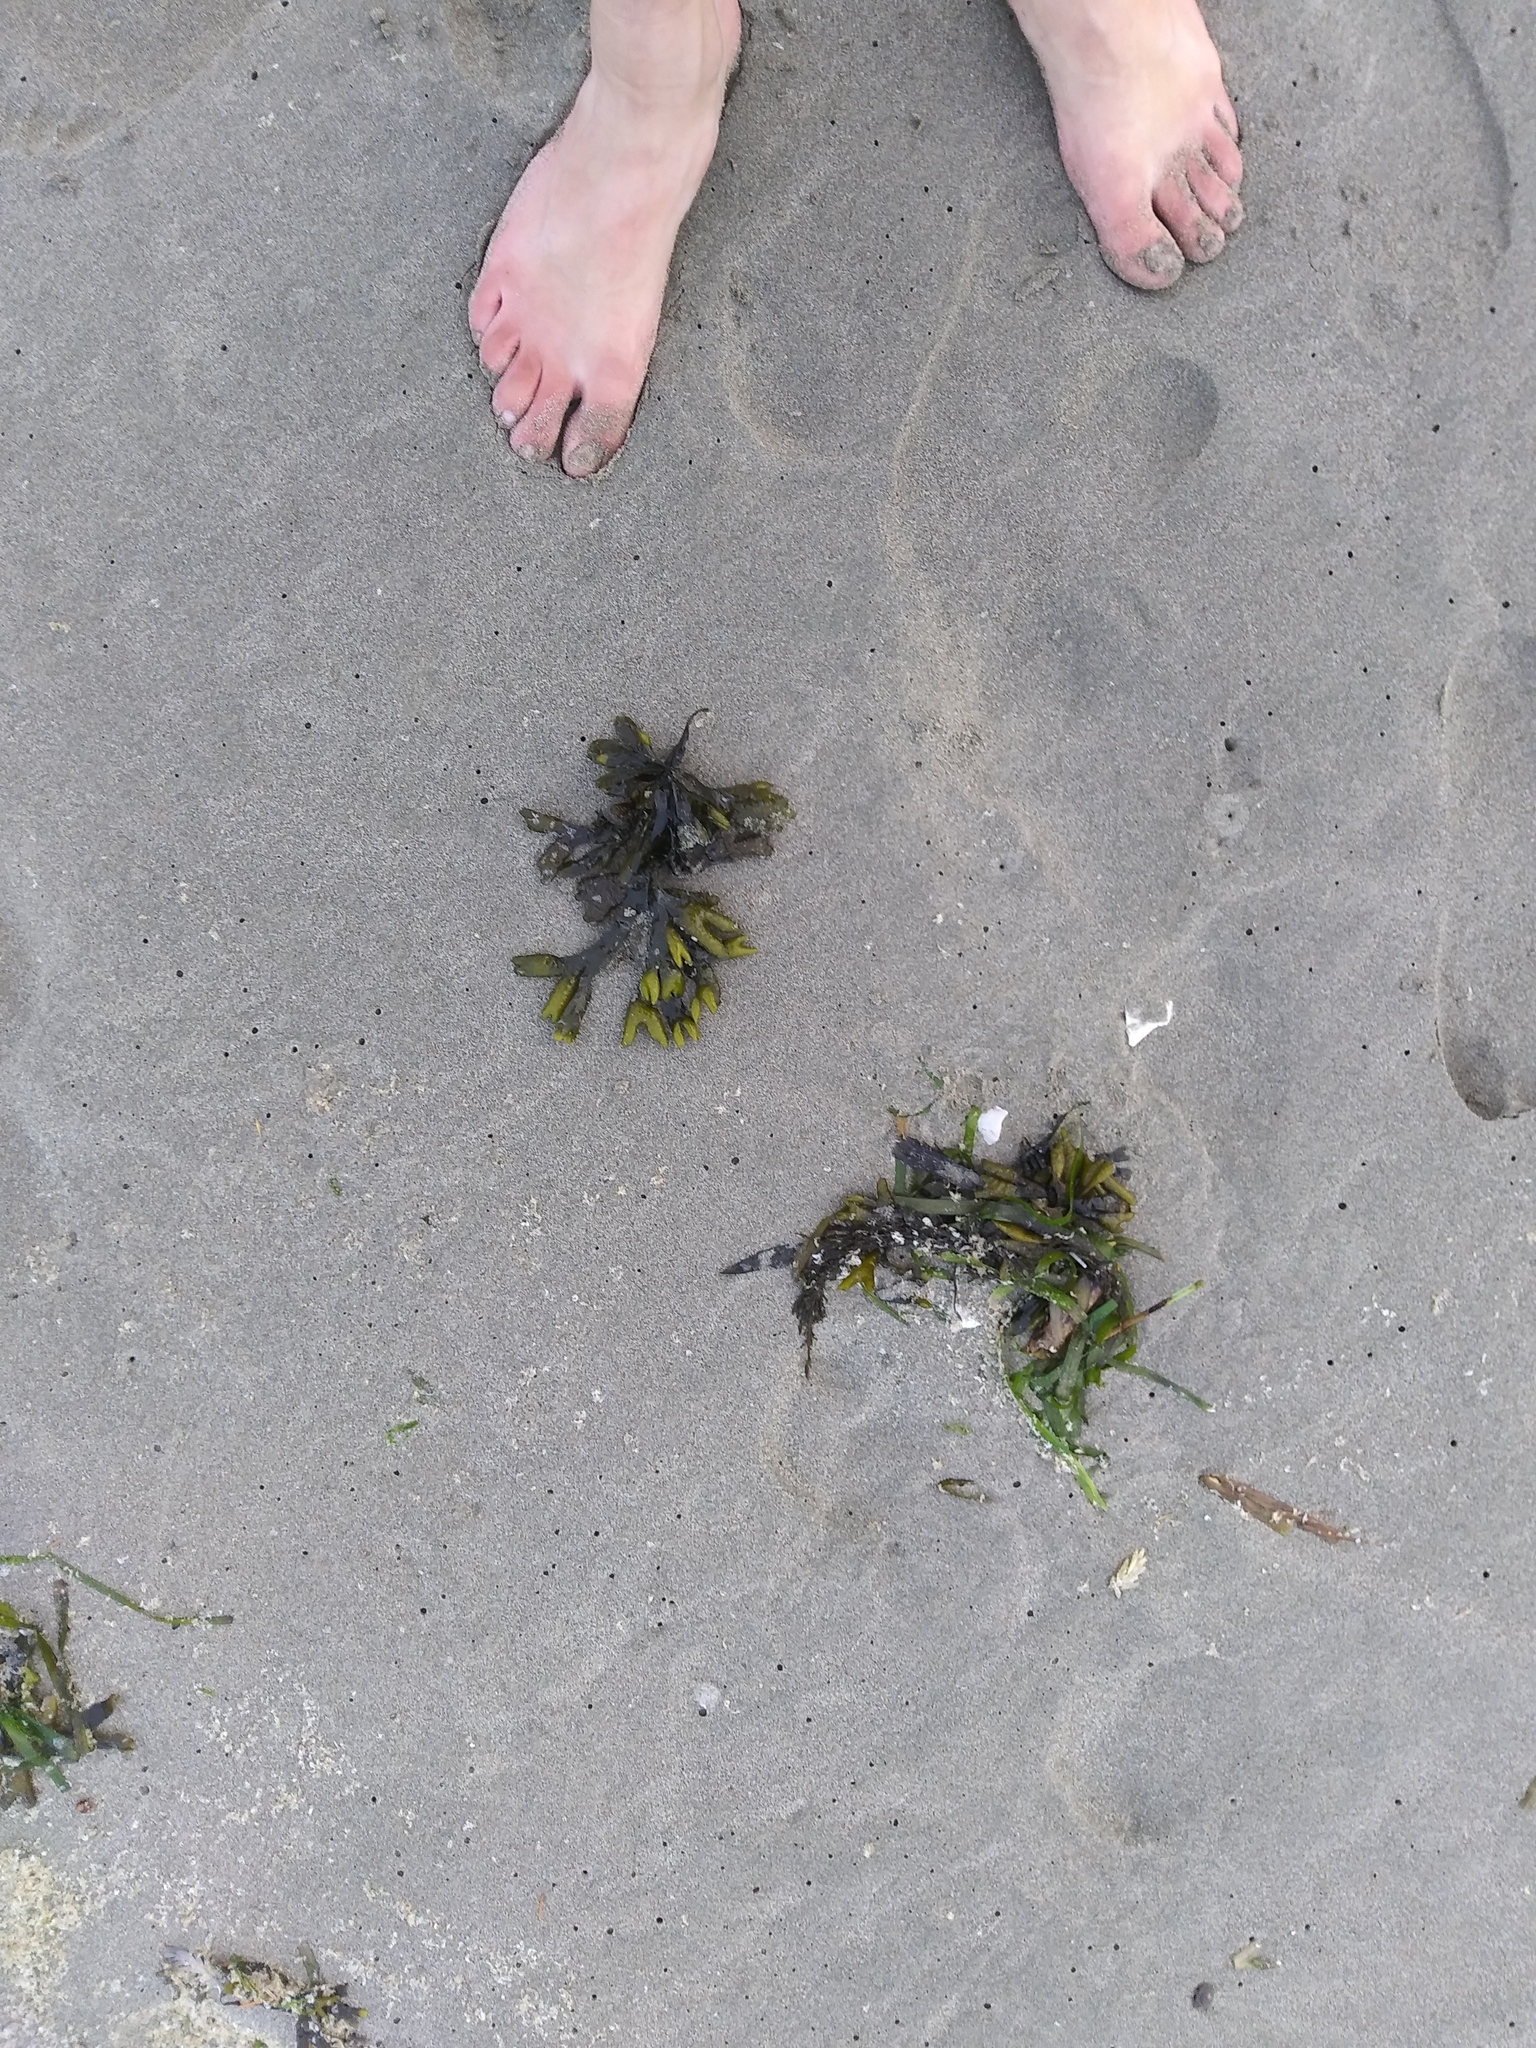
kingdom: Chromista
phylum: Ochrophyta
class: Phaeophyceae
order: Fucales
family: Fucaceae
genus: Fucus
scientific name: Fucus distichus
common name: Rockweed
